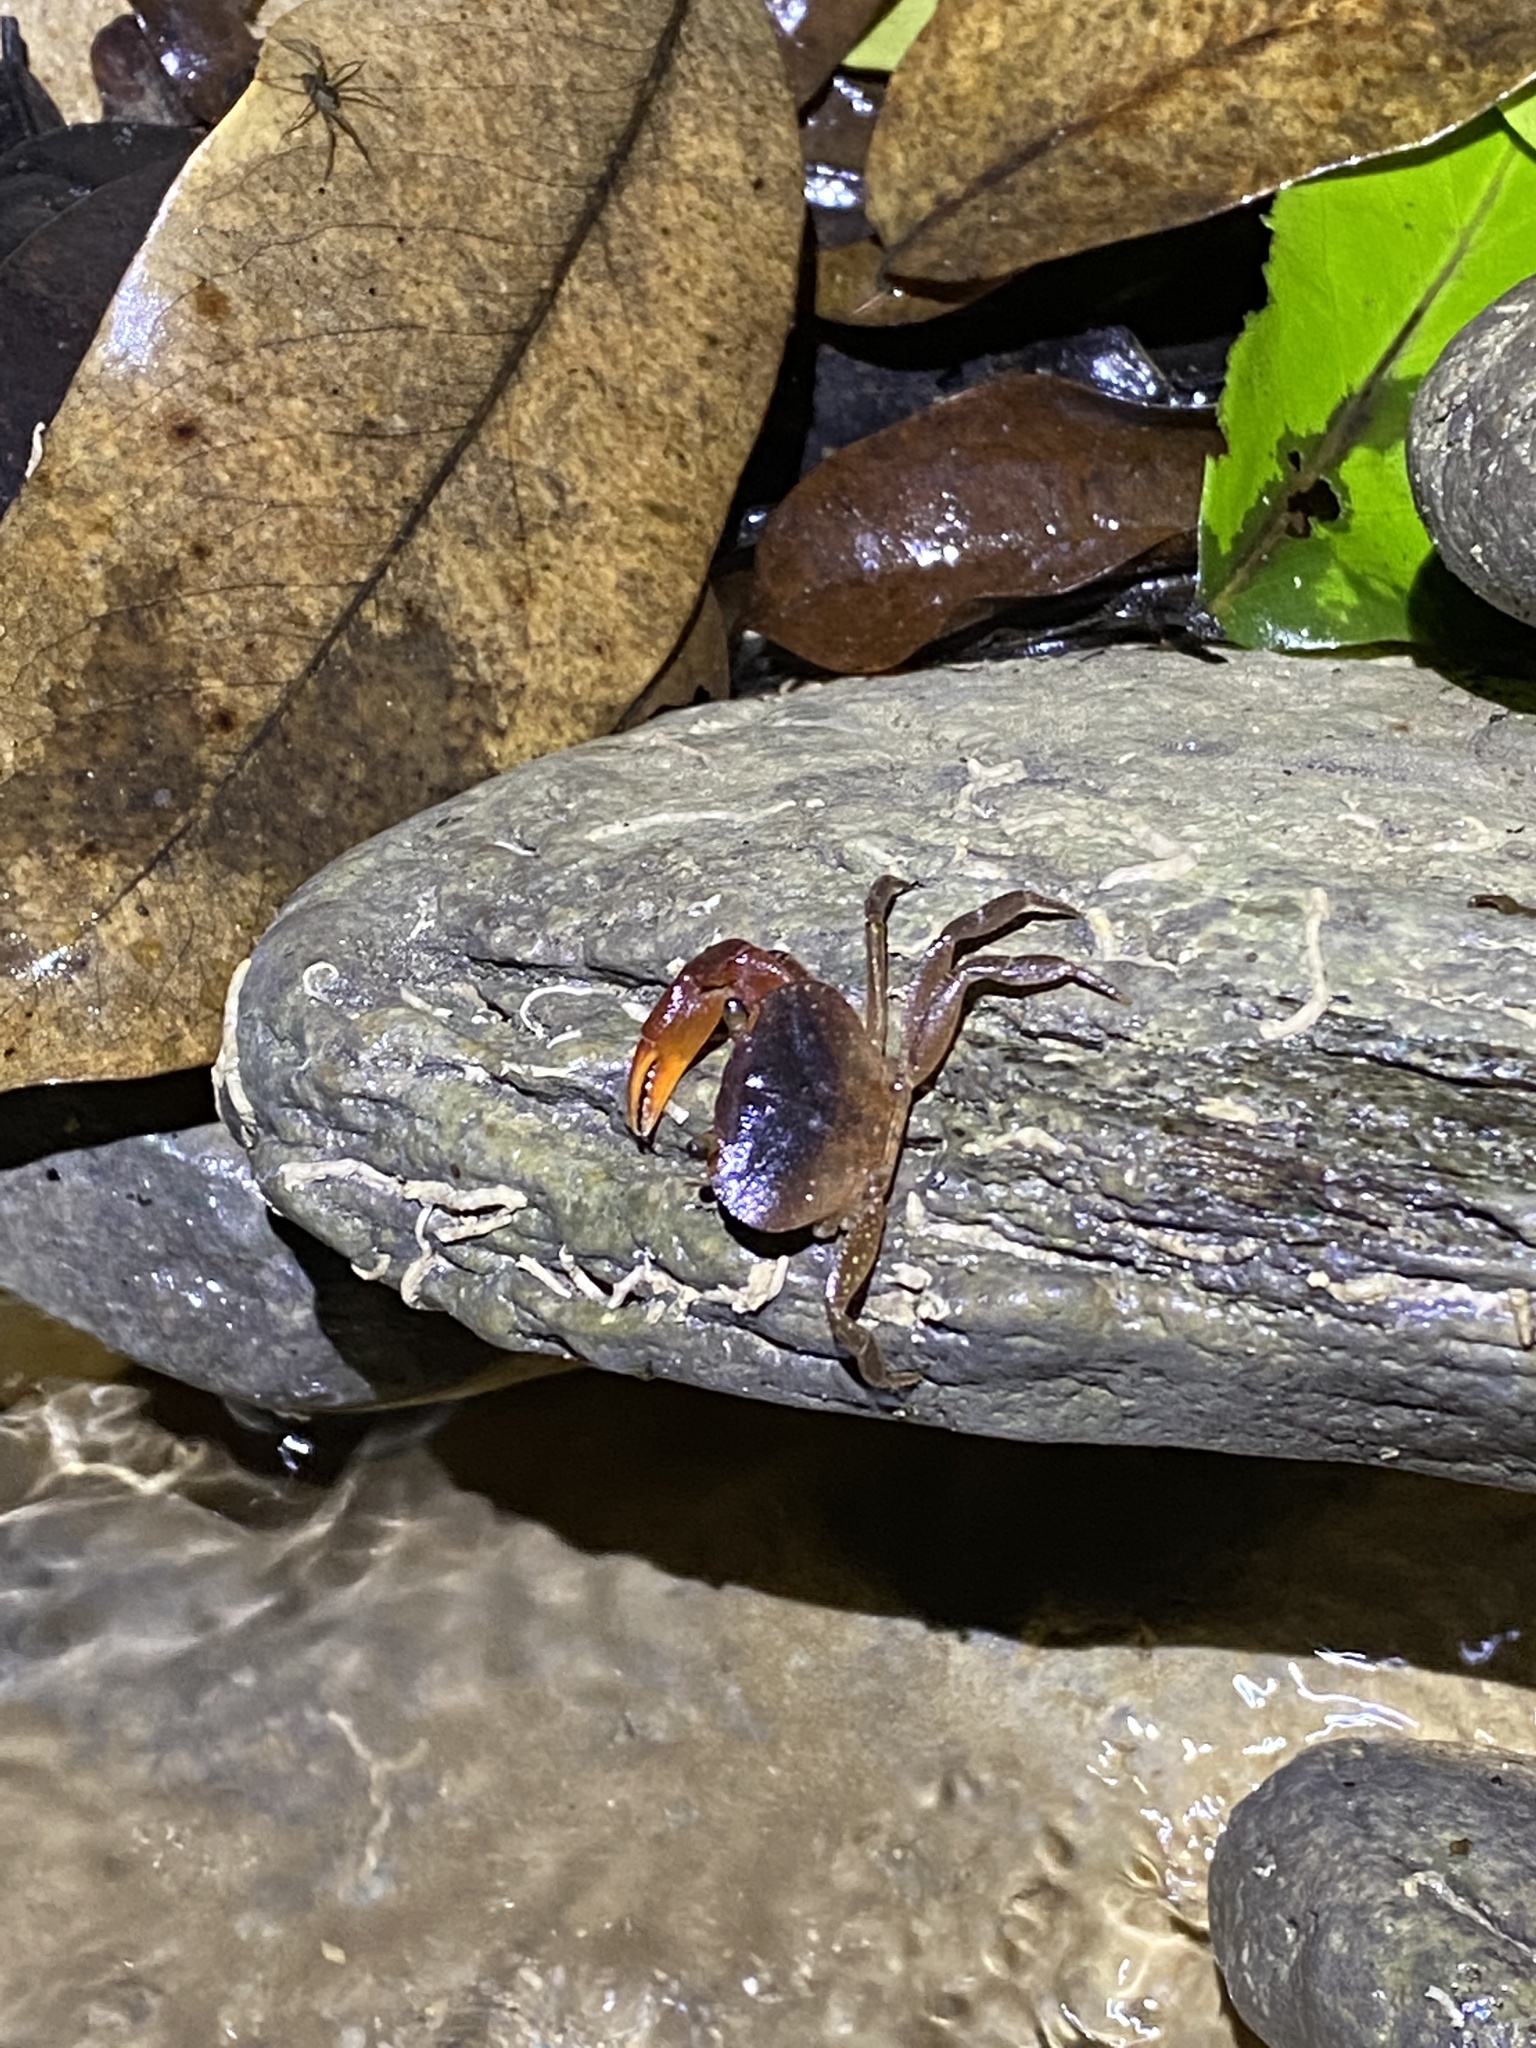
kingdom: Animalia
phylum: Arthropoda
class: Malacostraca
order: Decapoda
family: Pseudothelphusidae
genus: Rodriguezus
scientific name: Rodriguezus garmani
